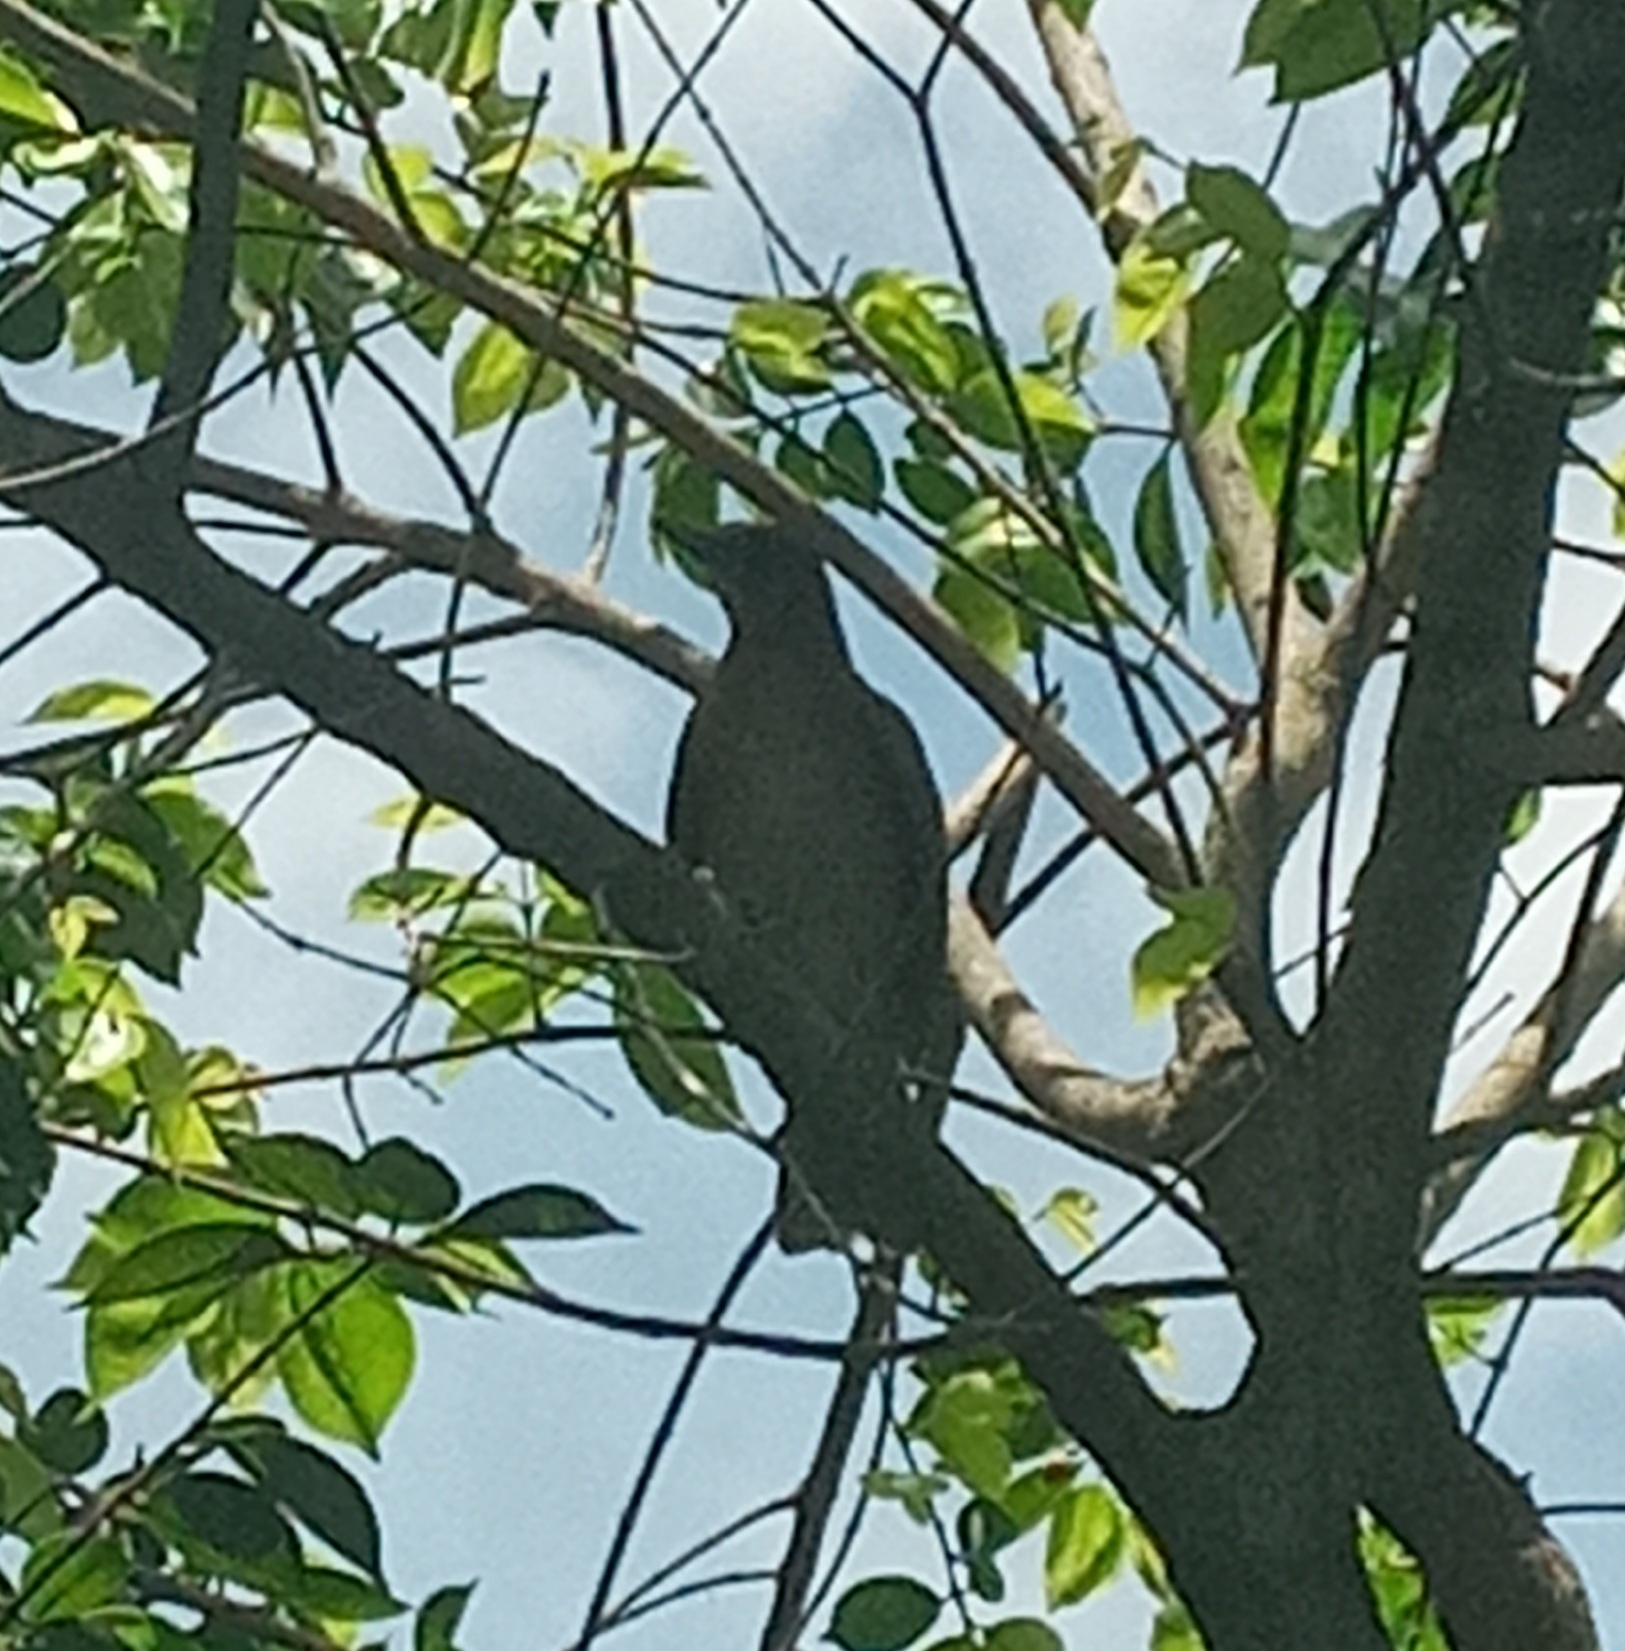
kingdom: Animalia
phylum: Chordata
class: Aves
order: Passeriformes
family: Turdidae
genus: Turdus
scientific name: Turdus grayi
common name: Clay-colored thrush
